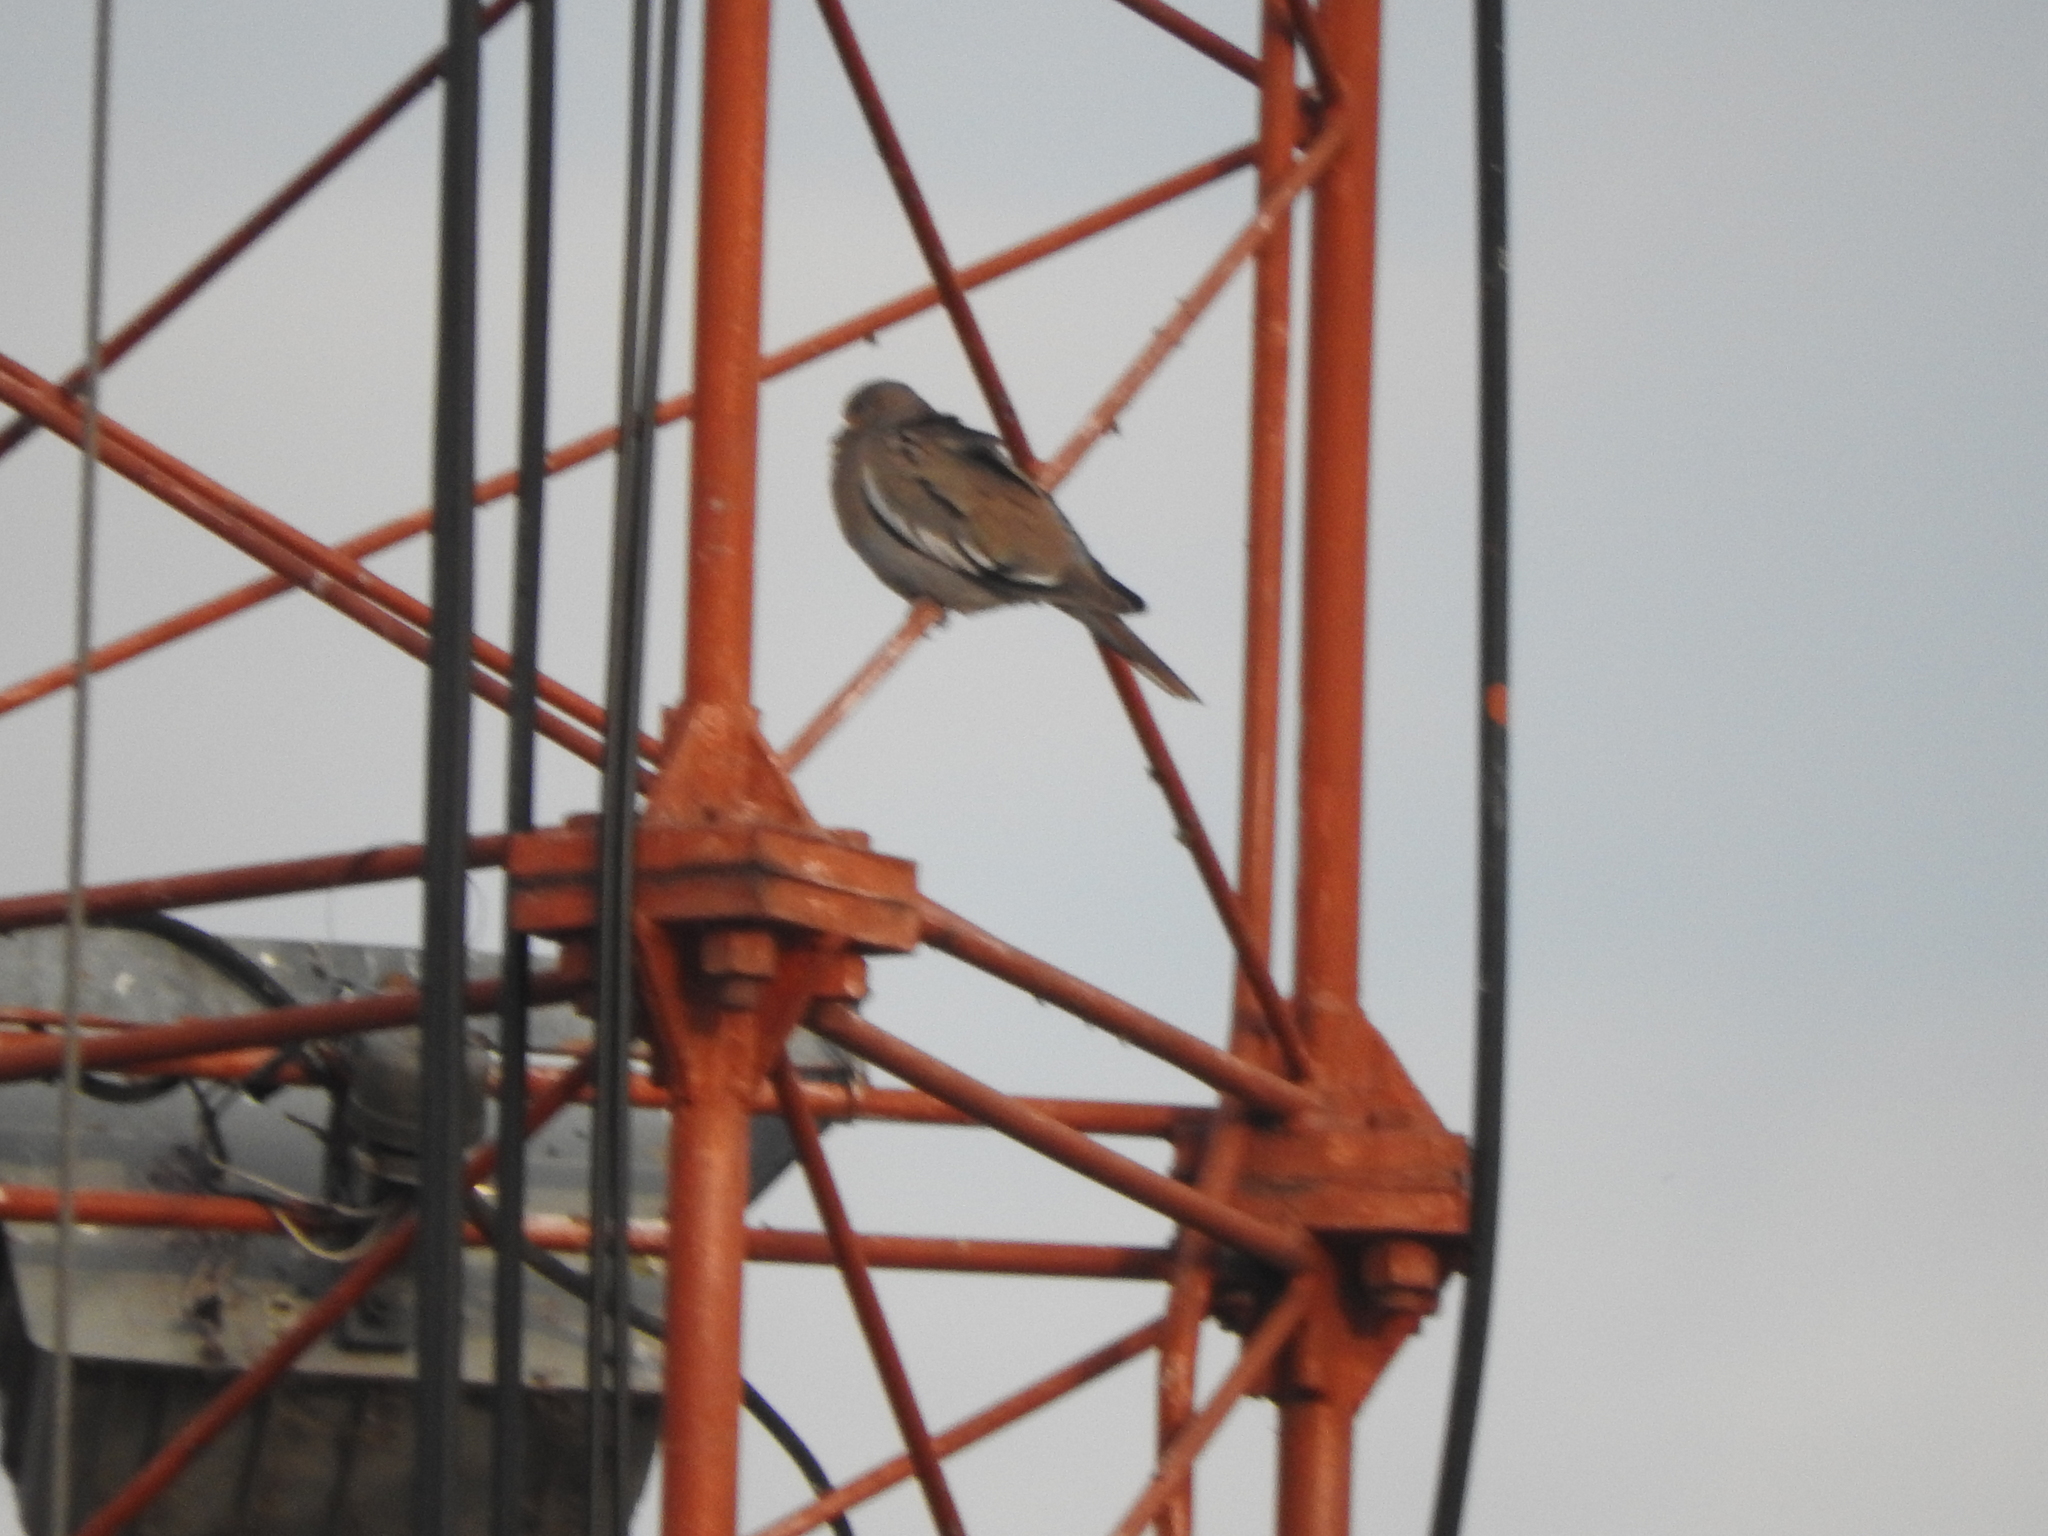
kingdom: Animalia
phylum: Chordata
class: Aves
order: Columbiformes
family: Columbidae
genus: Zenaida
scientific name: Zenaida asiatica
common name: White-winged dove
